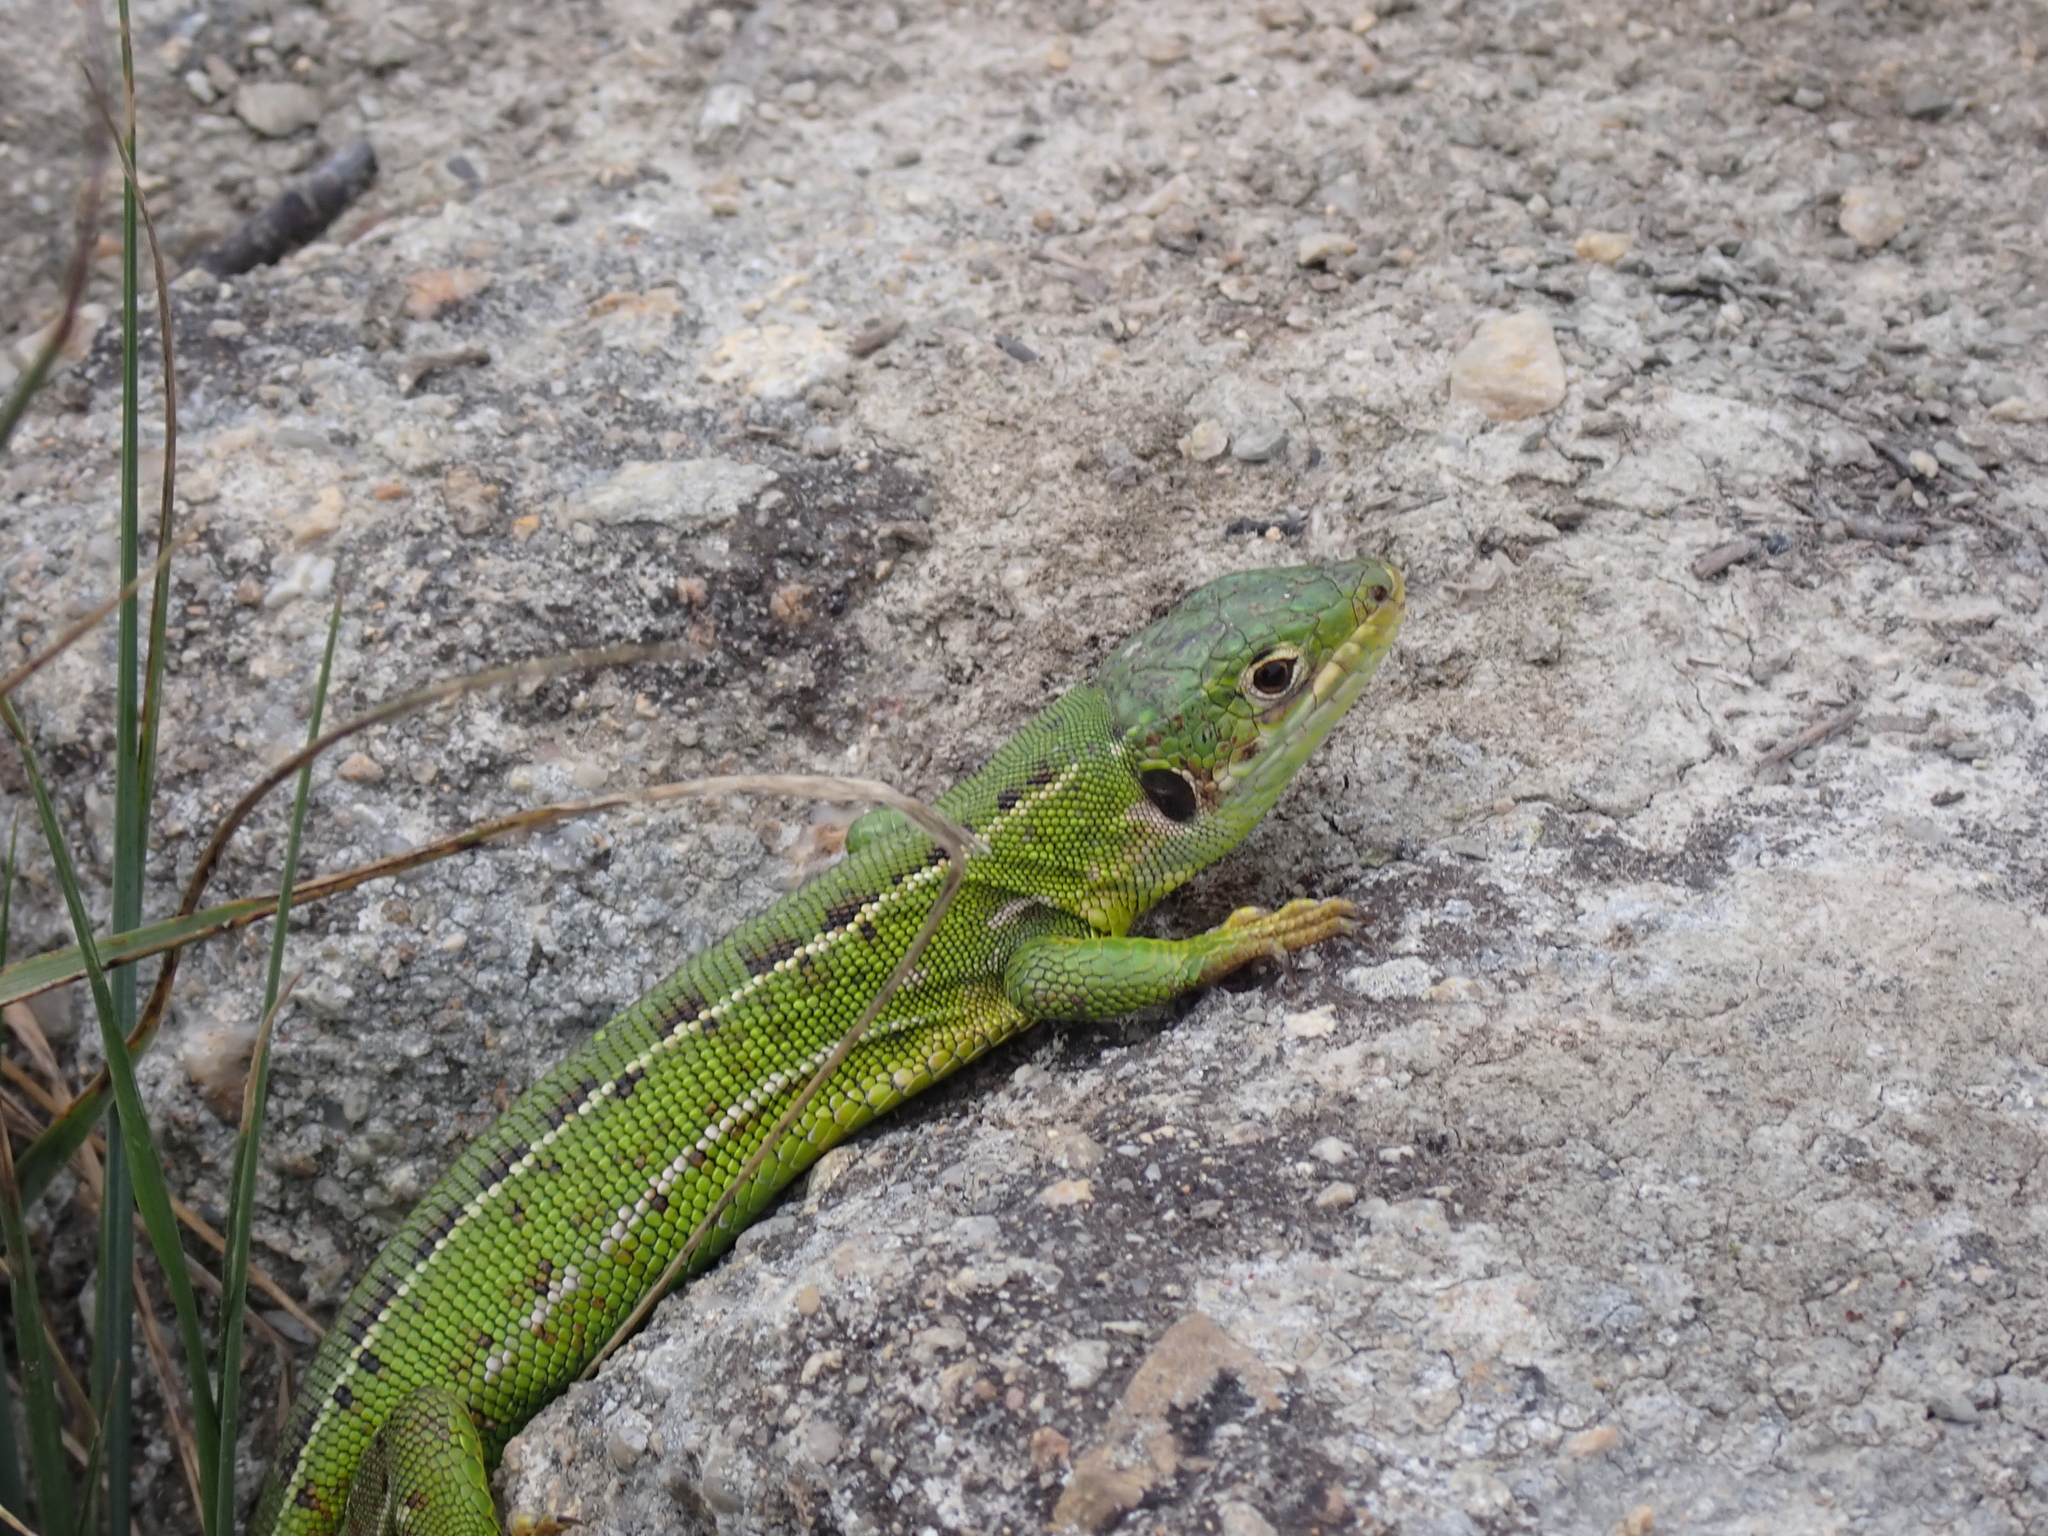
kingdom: Animalia
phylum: Chordata
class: Squamata
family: Lacertidae
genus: Lacerta
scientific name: Lacerta bilineata
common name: Western green lizard
